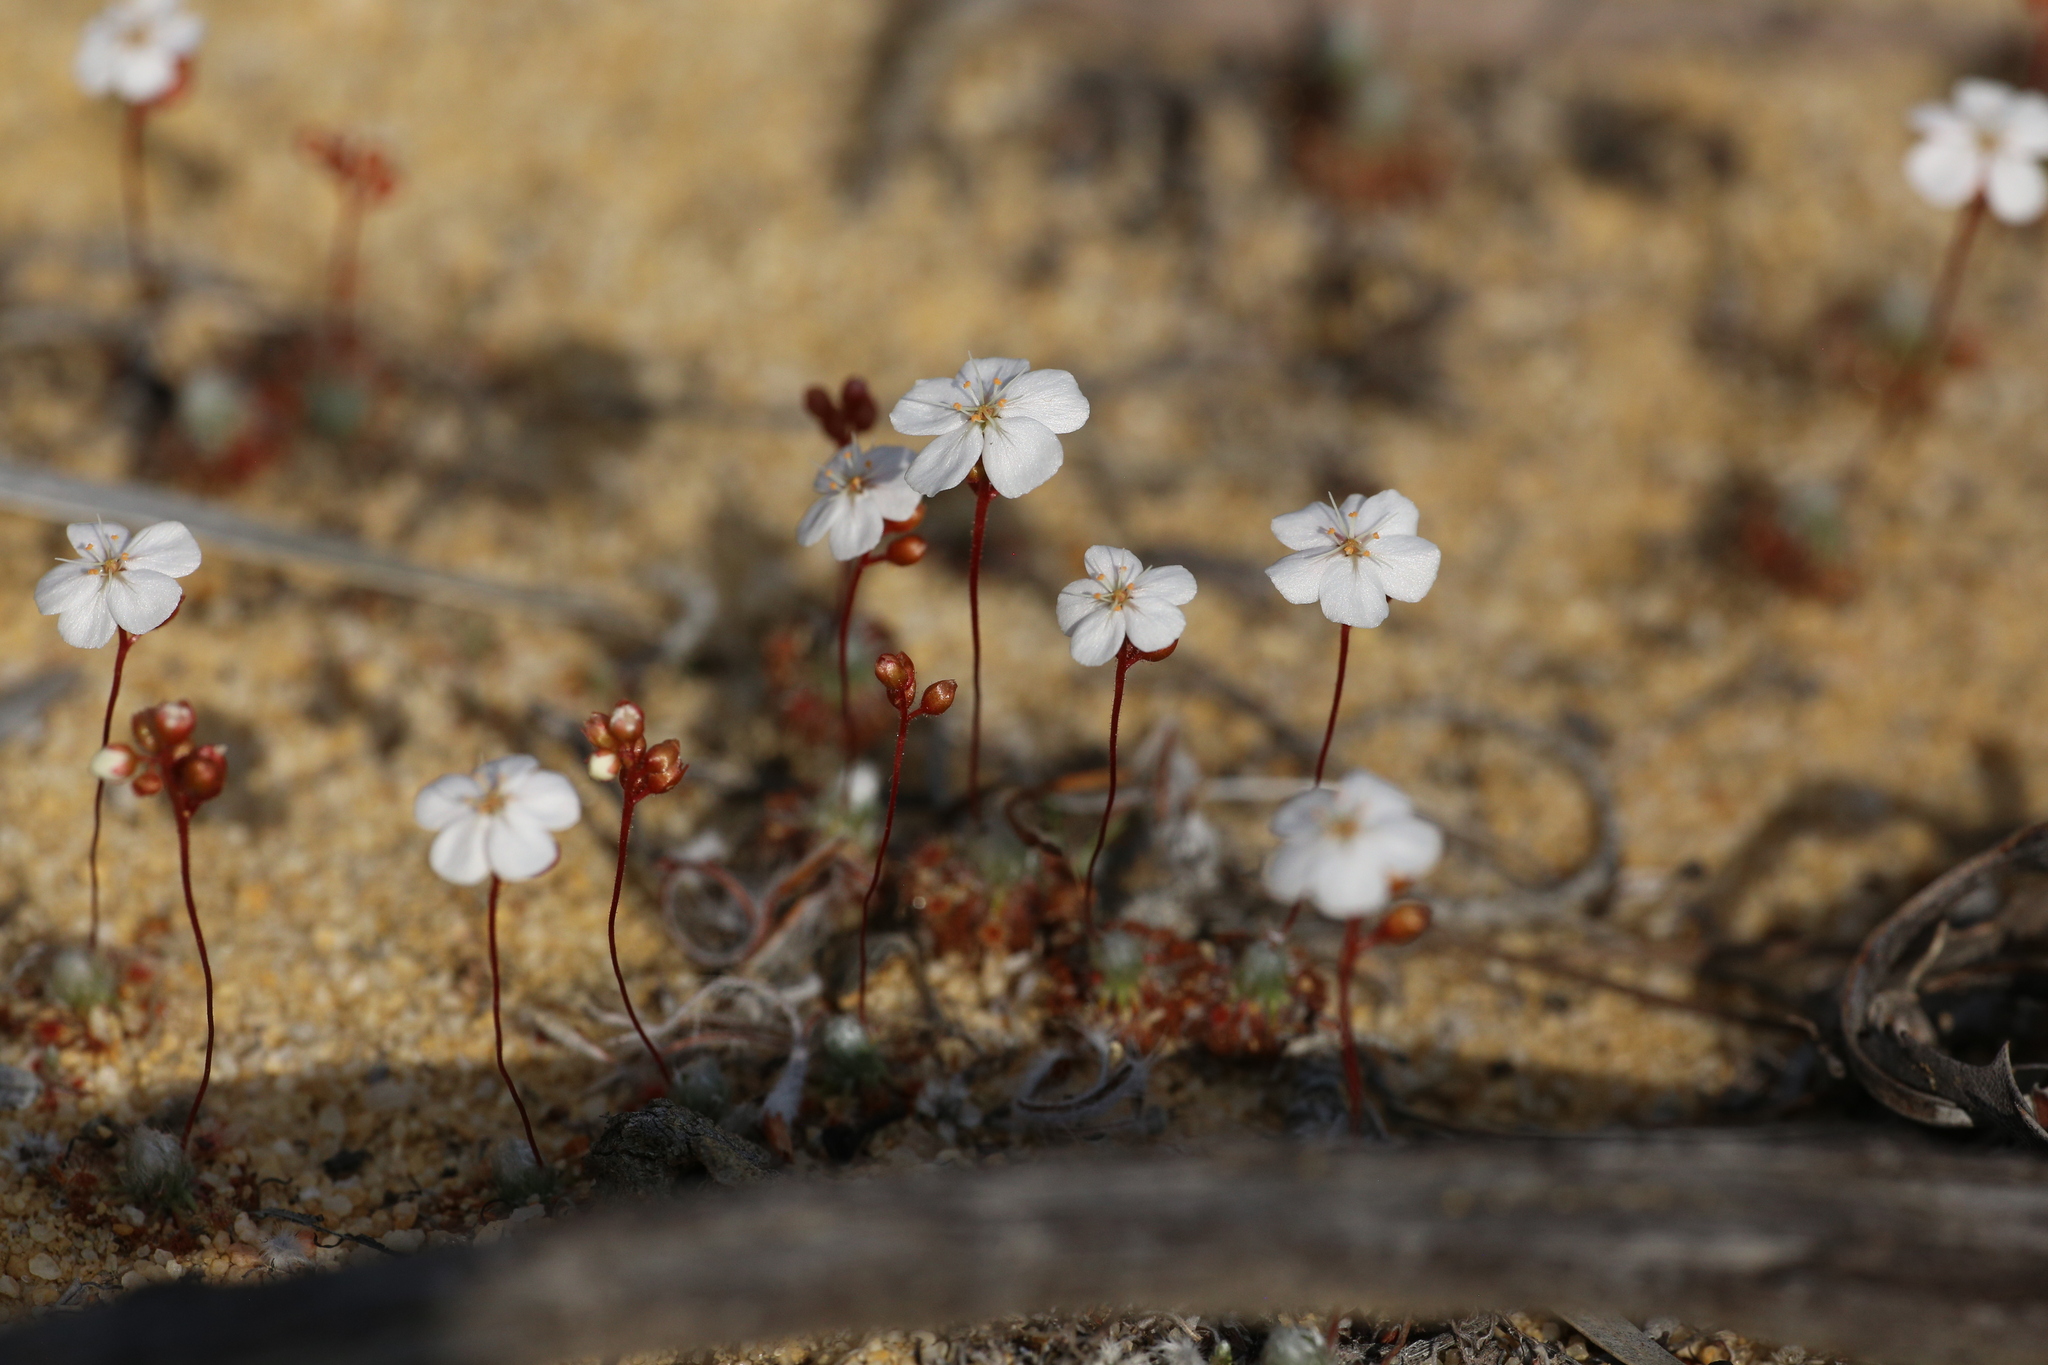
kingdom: Plantae
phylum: Tracheophyta
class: Magnoliopsida
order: Caryophyllales
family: Droseraceae
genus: Drosera
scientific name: Drosera citrina
